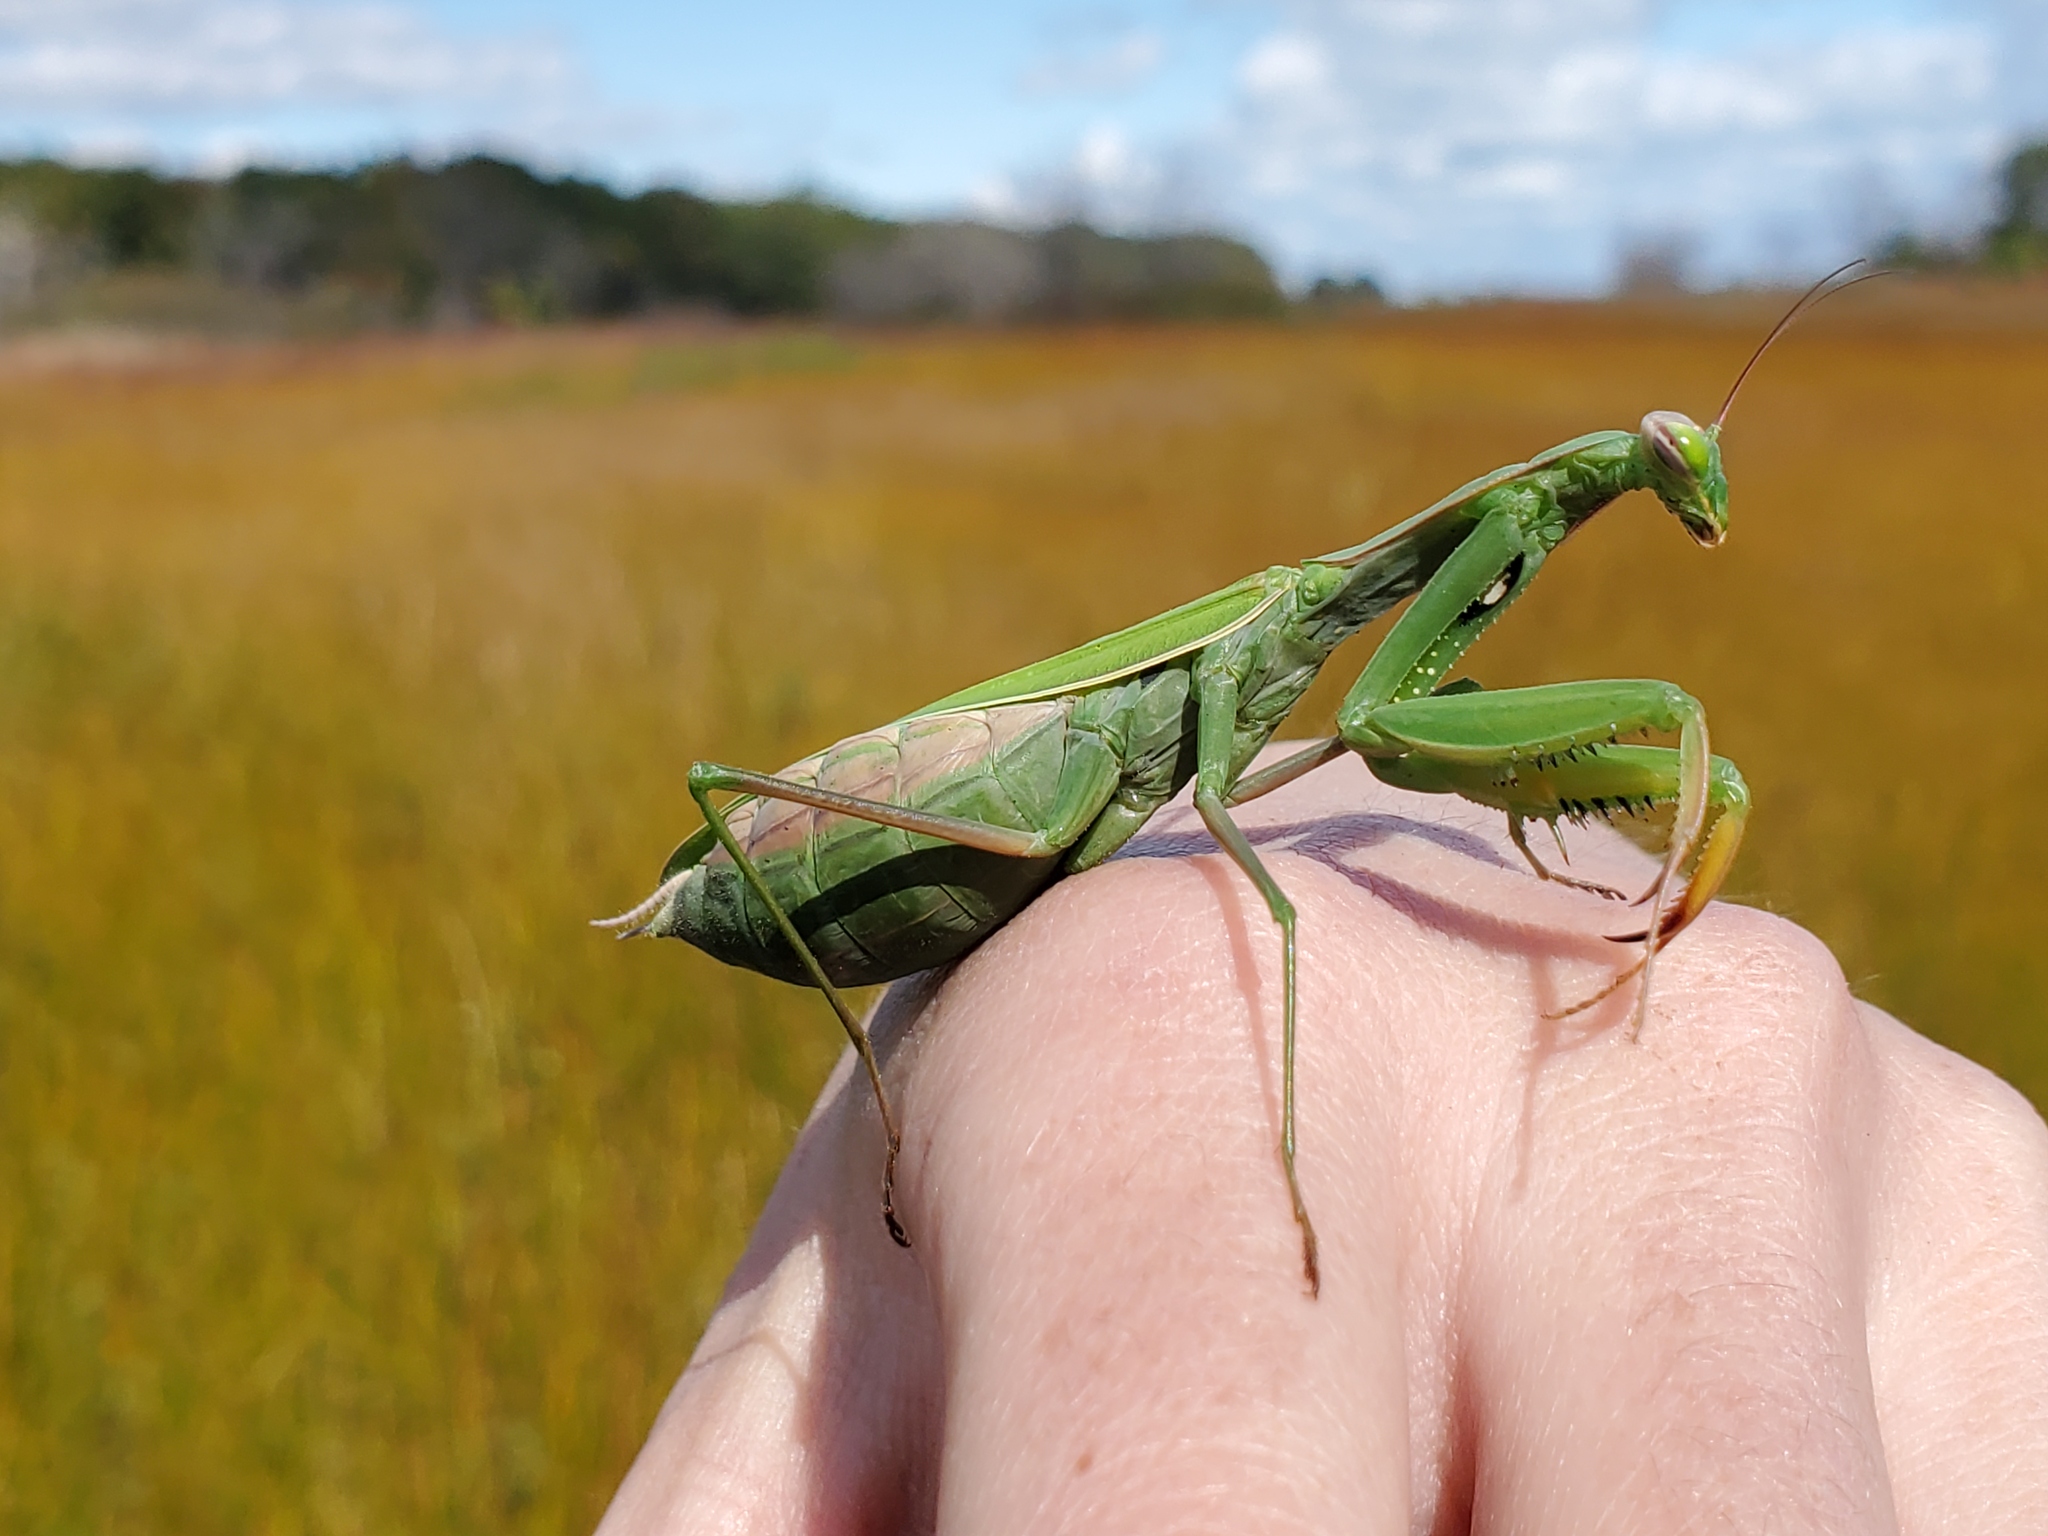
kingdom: Animalia
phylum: Arthropoda
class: Insecta
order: Mantodea
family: Mantidae
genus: Mantis
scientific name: Mantis religiosa
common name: Praying mantis
